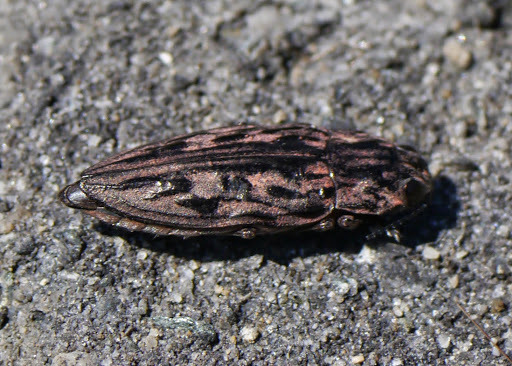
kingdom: Animalia
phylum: Arthropoda
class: Insecta
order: Coleoptera
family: Buprestidae
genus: Chalcophora
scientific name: Chalcophora virginiensis
